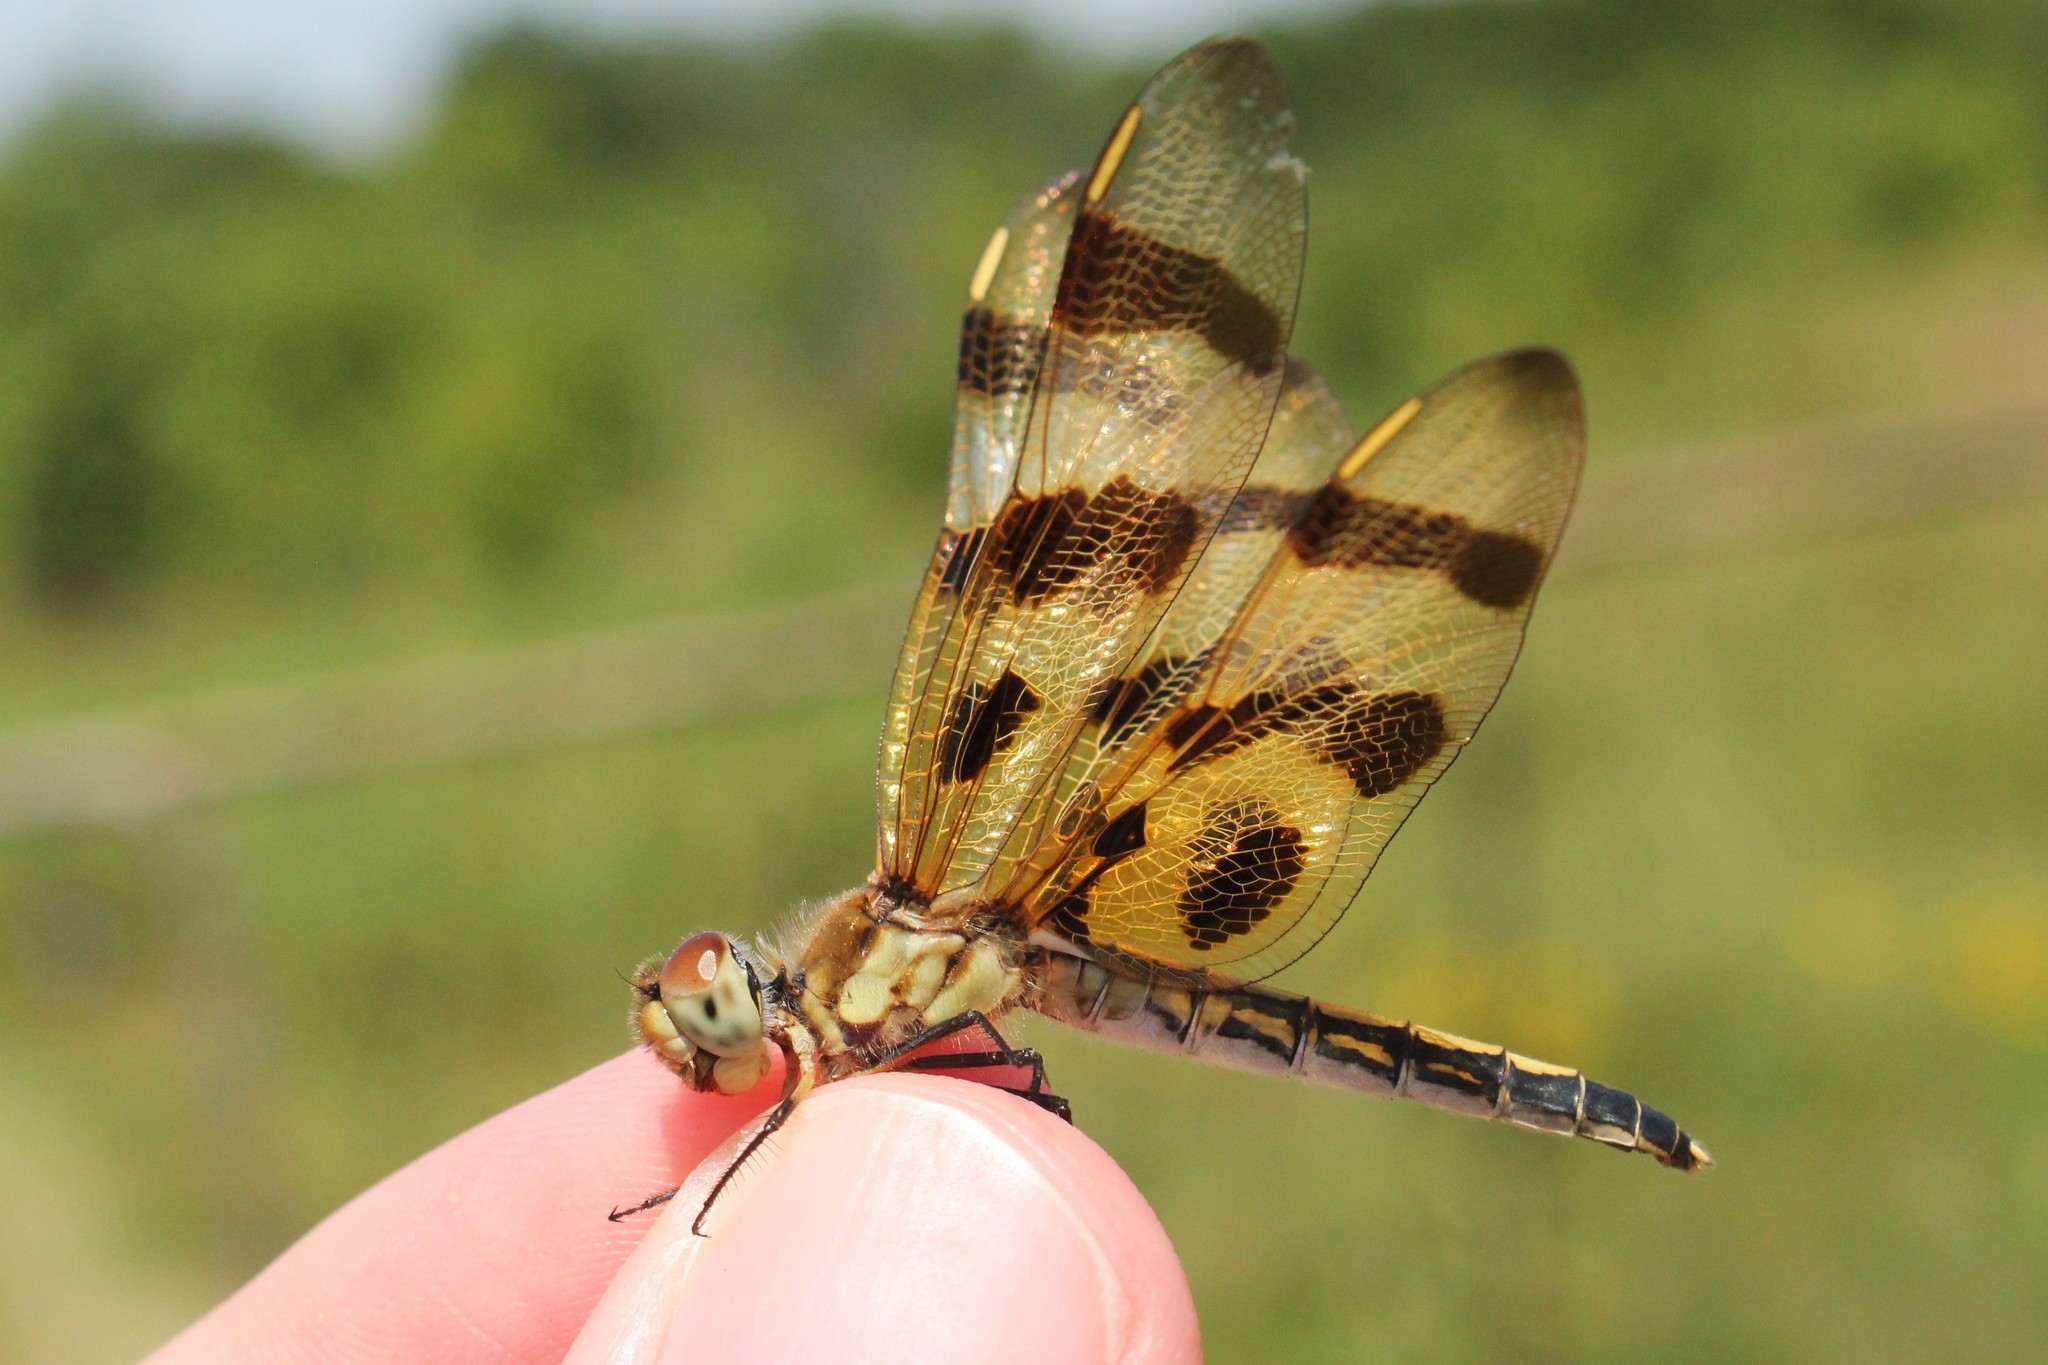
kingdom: Animalia
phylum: Arthropoda
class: Insecta
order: Odonata
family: Libellulidae
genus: Celithemis
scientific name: Celithemis eponina
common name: Halloween pennant
